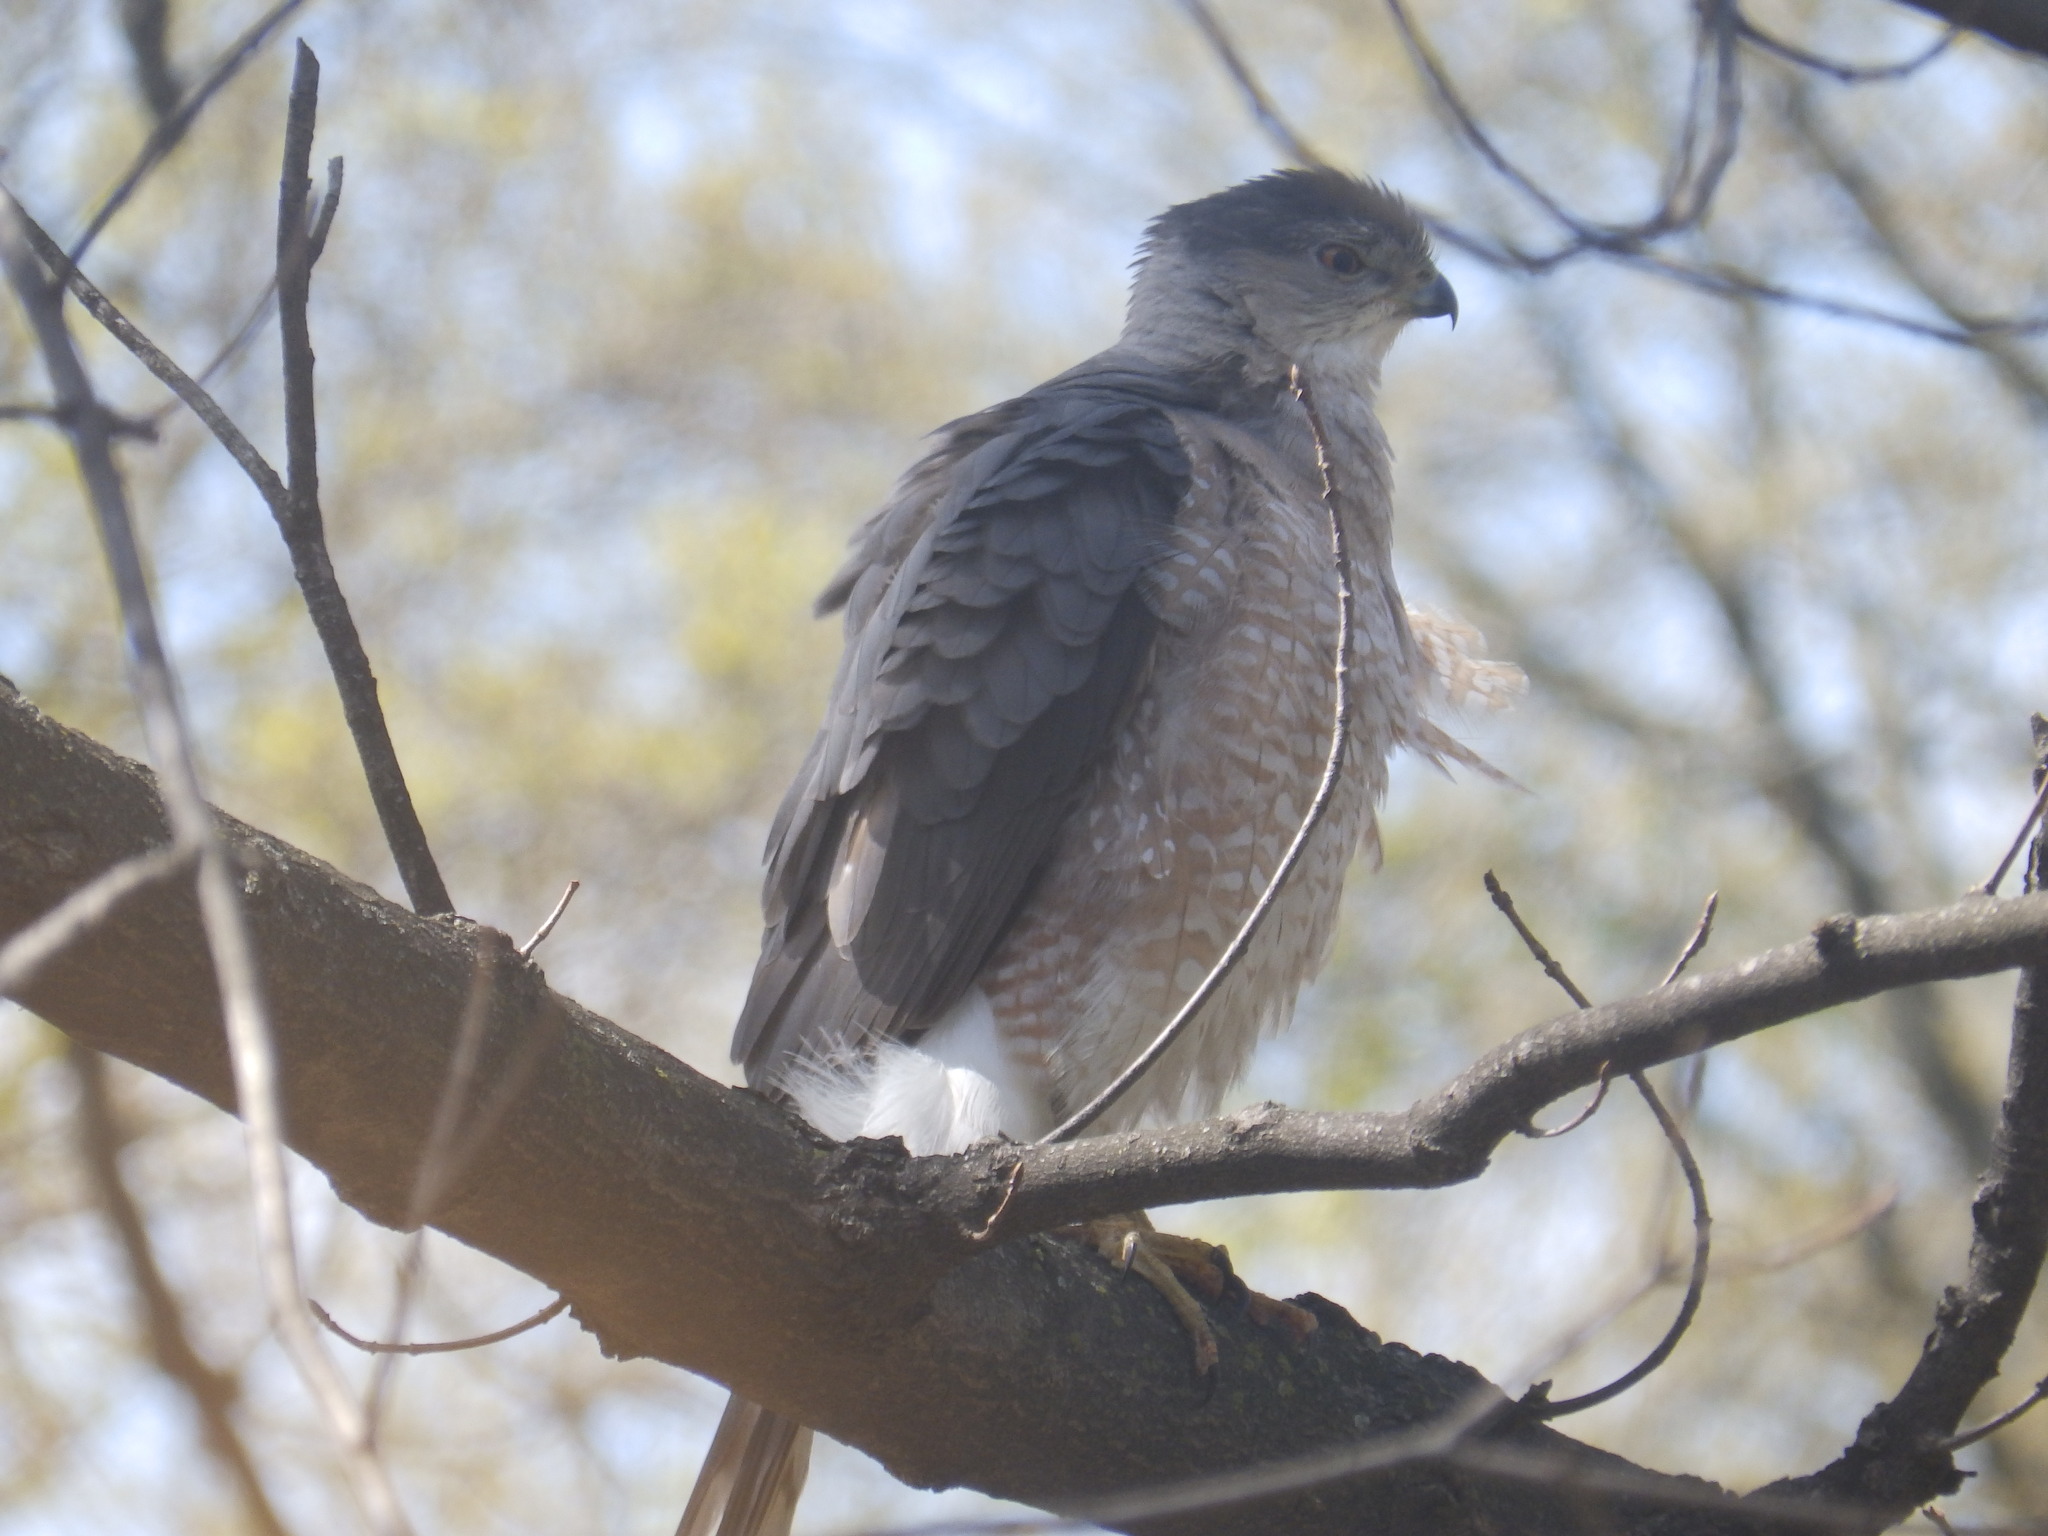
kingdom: Animalia
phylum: Chordata
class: Aves
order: Accipitriformes
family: Accipitridae
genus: Accipiter
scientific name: Accipiter cooperii
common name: Cooper's hawk
